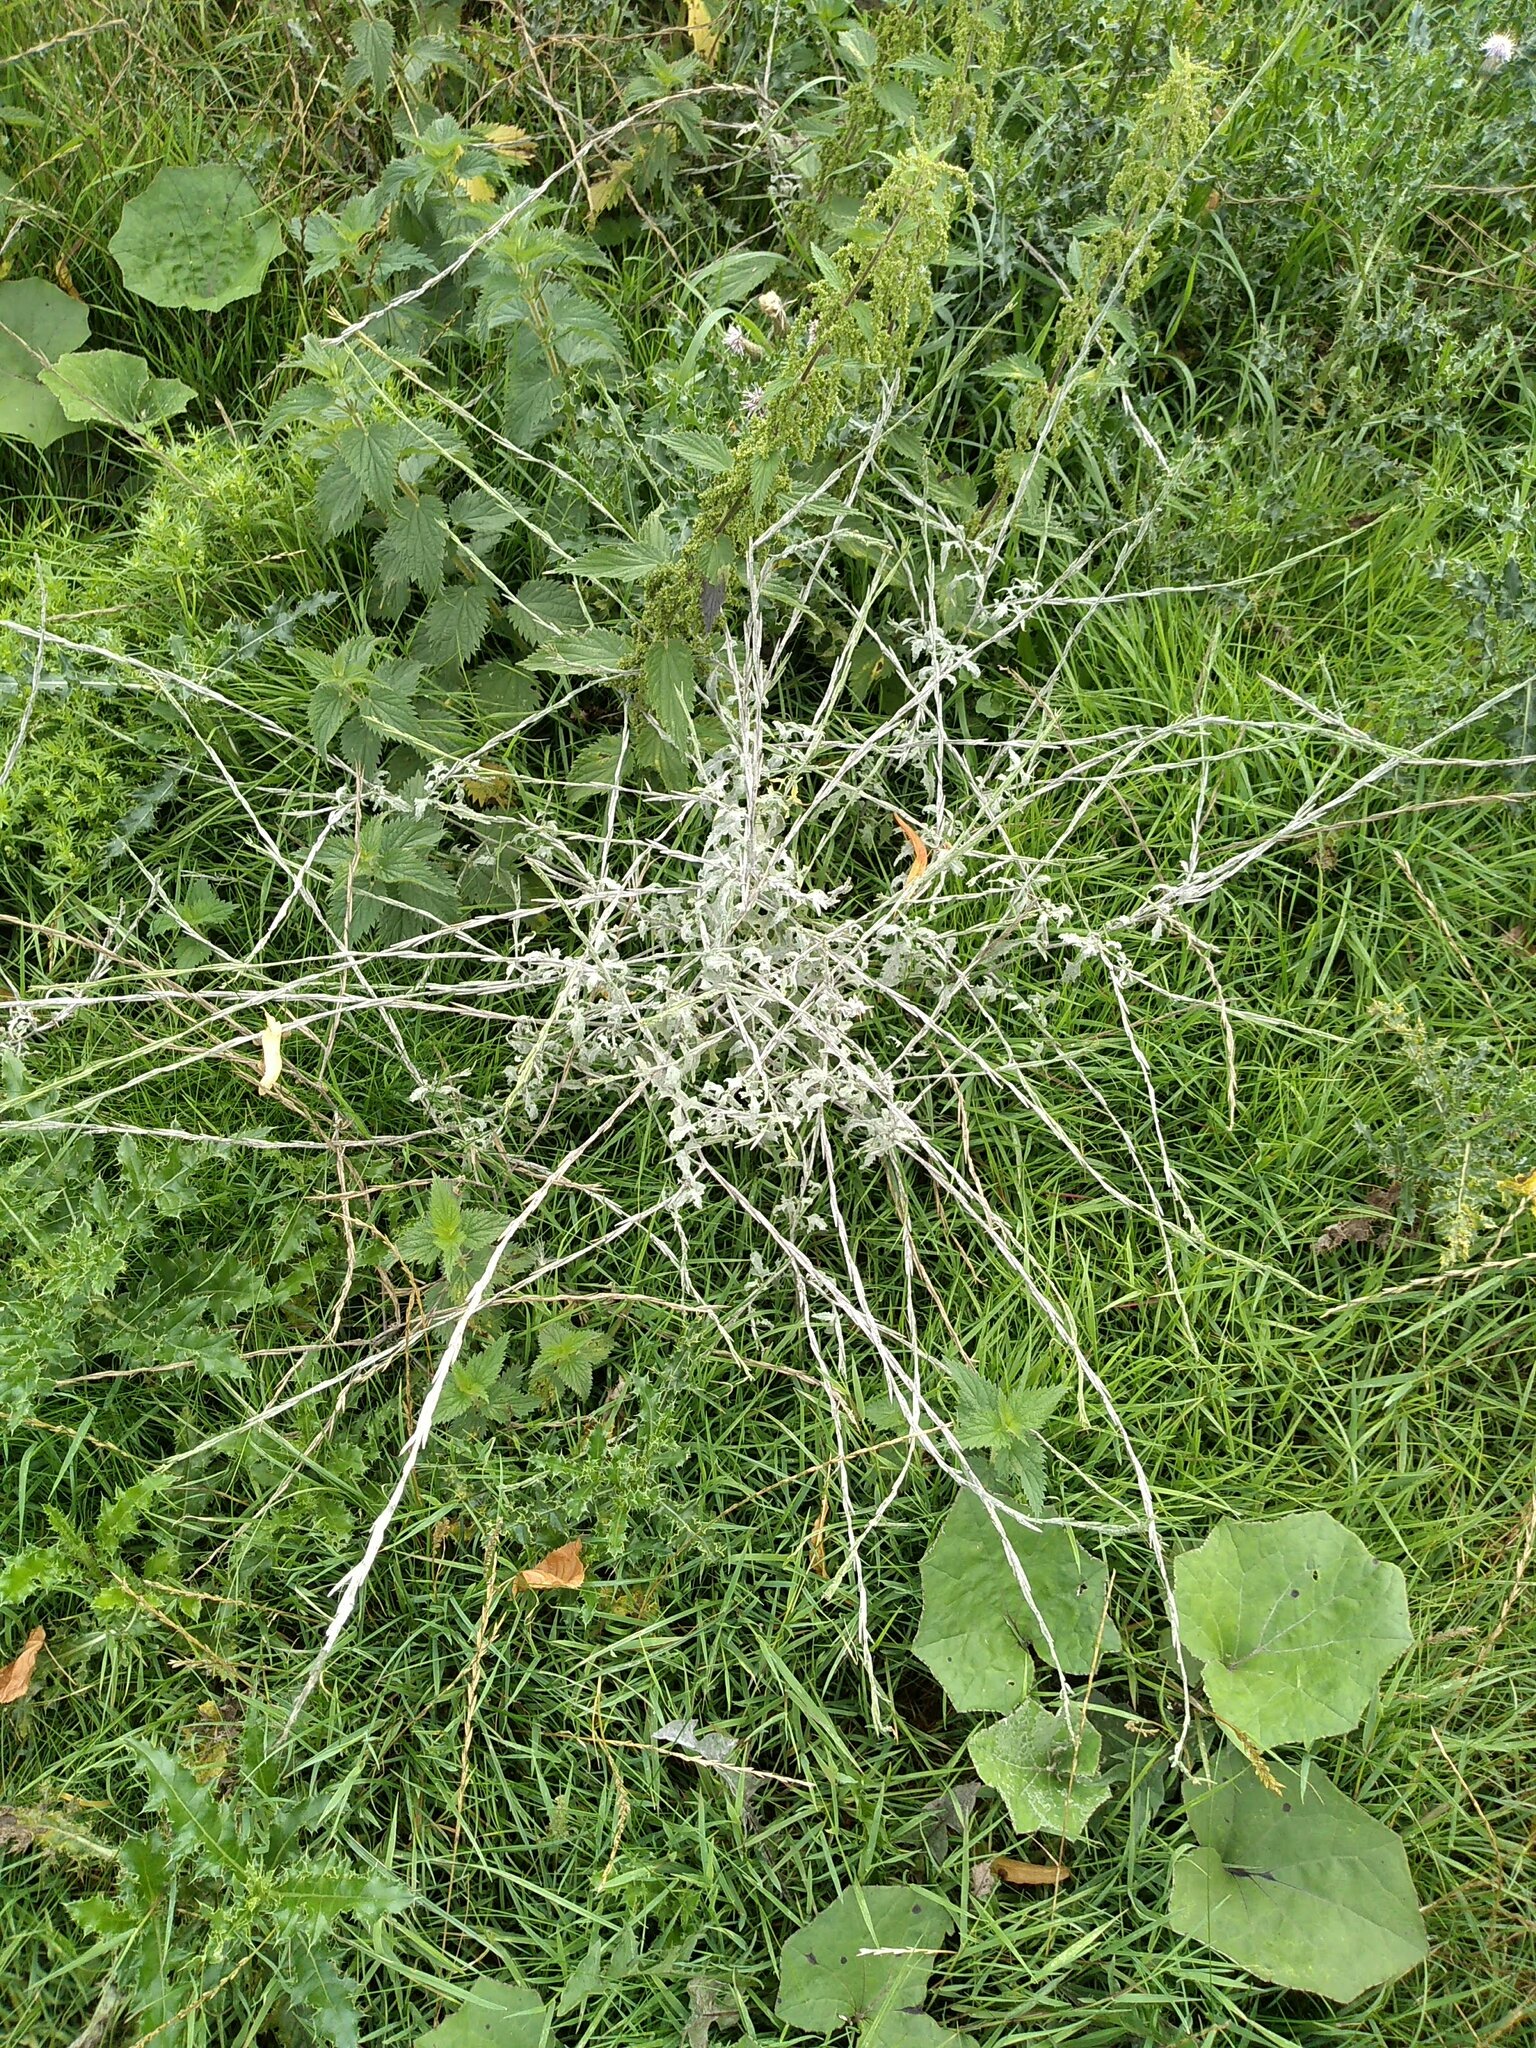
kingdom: Plantae
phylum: Tracheophyta
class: Magnoliopsida
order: Brassicales
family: Brassicaceae
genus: Sisymbrium
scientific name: Sisymbrium officinale
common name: Hedge mustard
